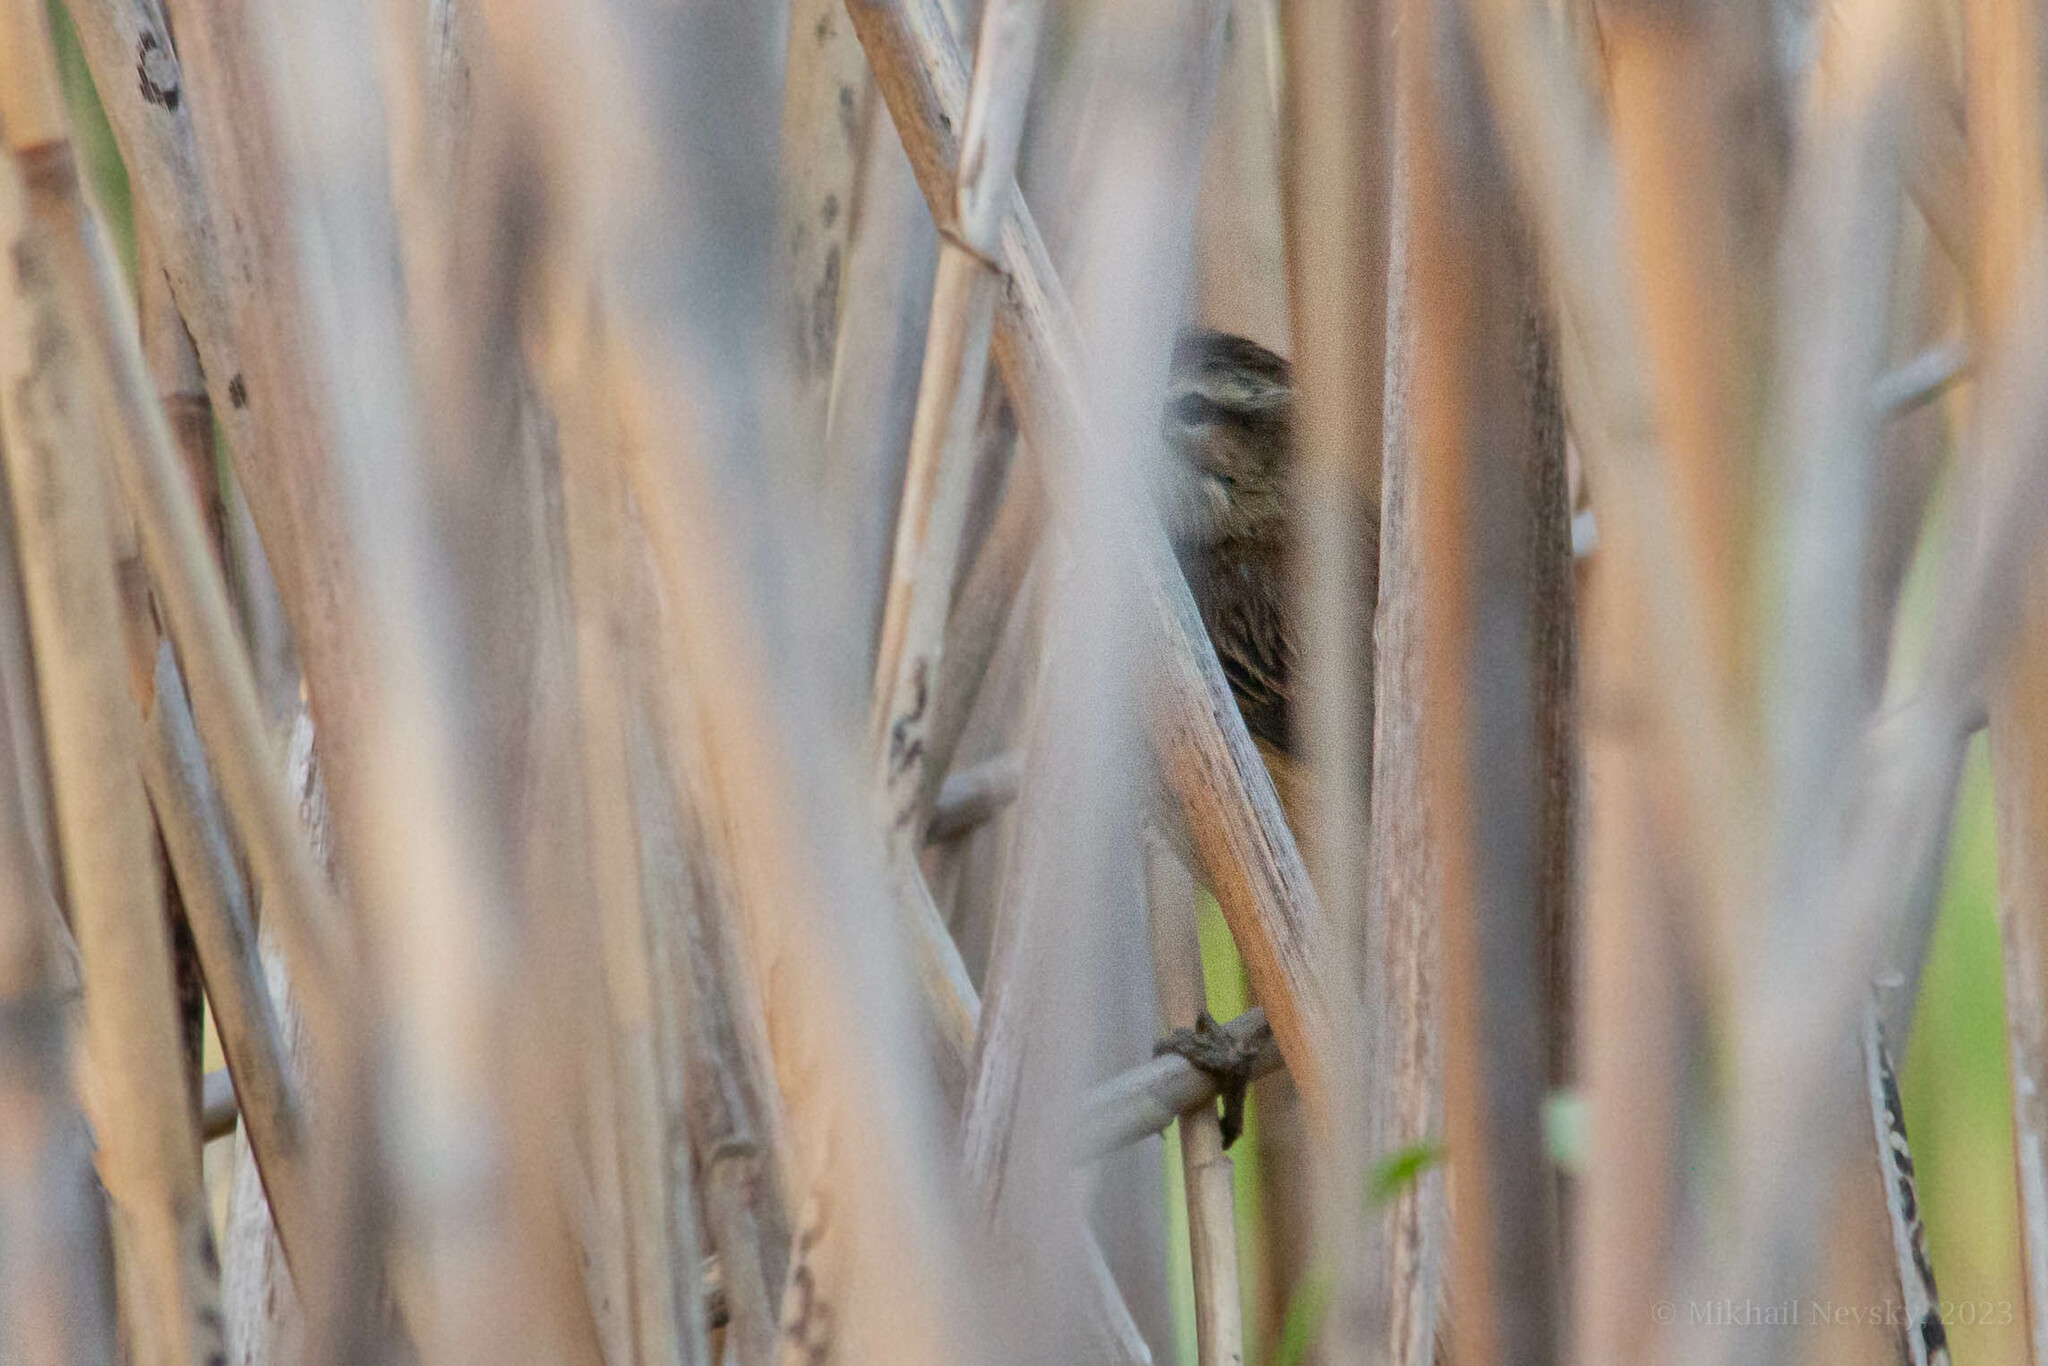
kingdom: Animalia
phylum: Chordata
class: Aves
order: Passeriformes
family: Acrocephalidae
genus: Acrocephalus
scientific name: Acrocephalus melanopogon
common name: Moustached warbler
